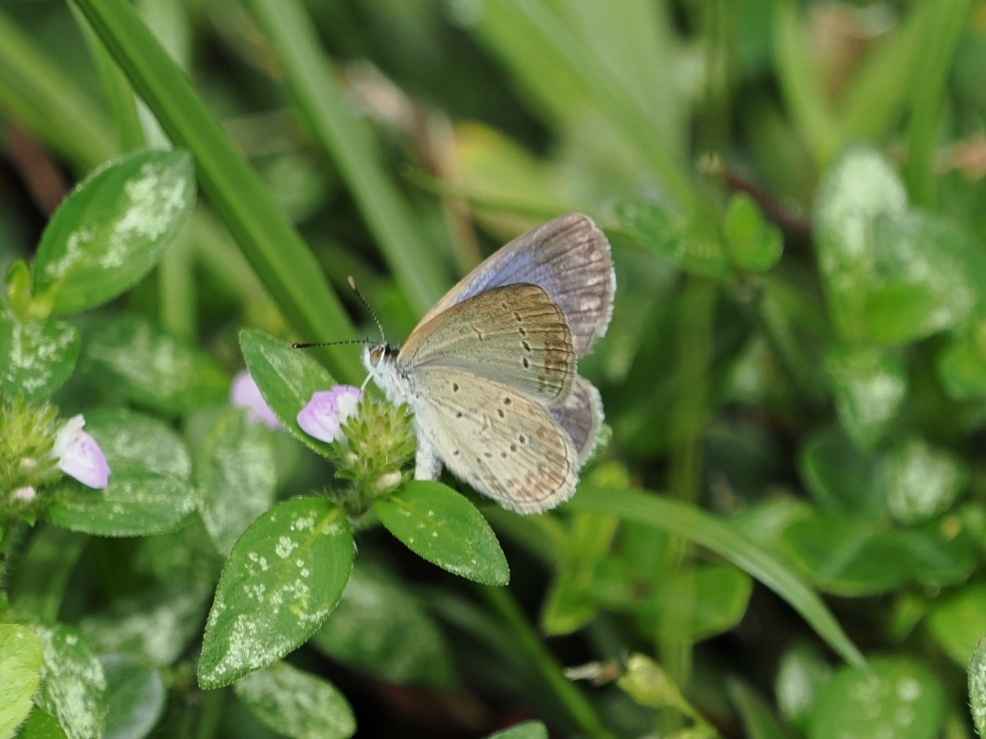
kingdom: Animalia
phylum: Arthropoda
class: Insecta
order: Lepidoptera
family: Lycaenidae
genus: Zizina
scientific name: Zizina otis
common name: Lesser grass blue
